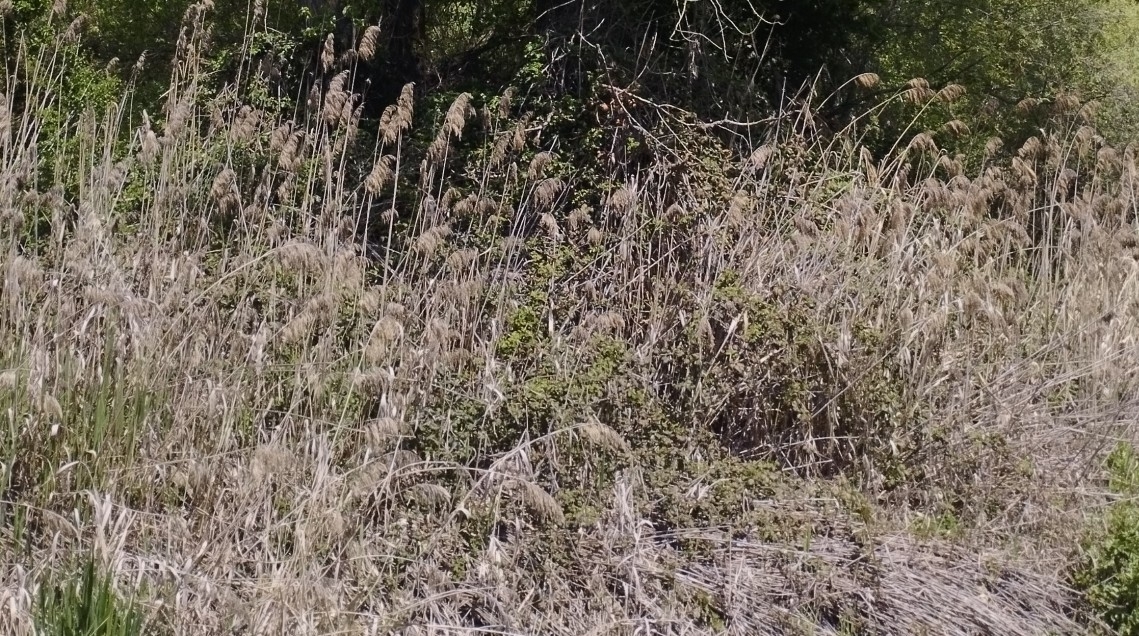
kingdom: Plantae
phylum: Tracheophyta
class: Liliopsida
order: Poales
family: Poaceae
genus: Phragmites
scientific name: Phragmites australis
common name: Common reed
